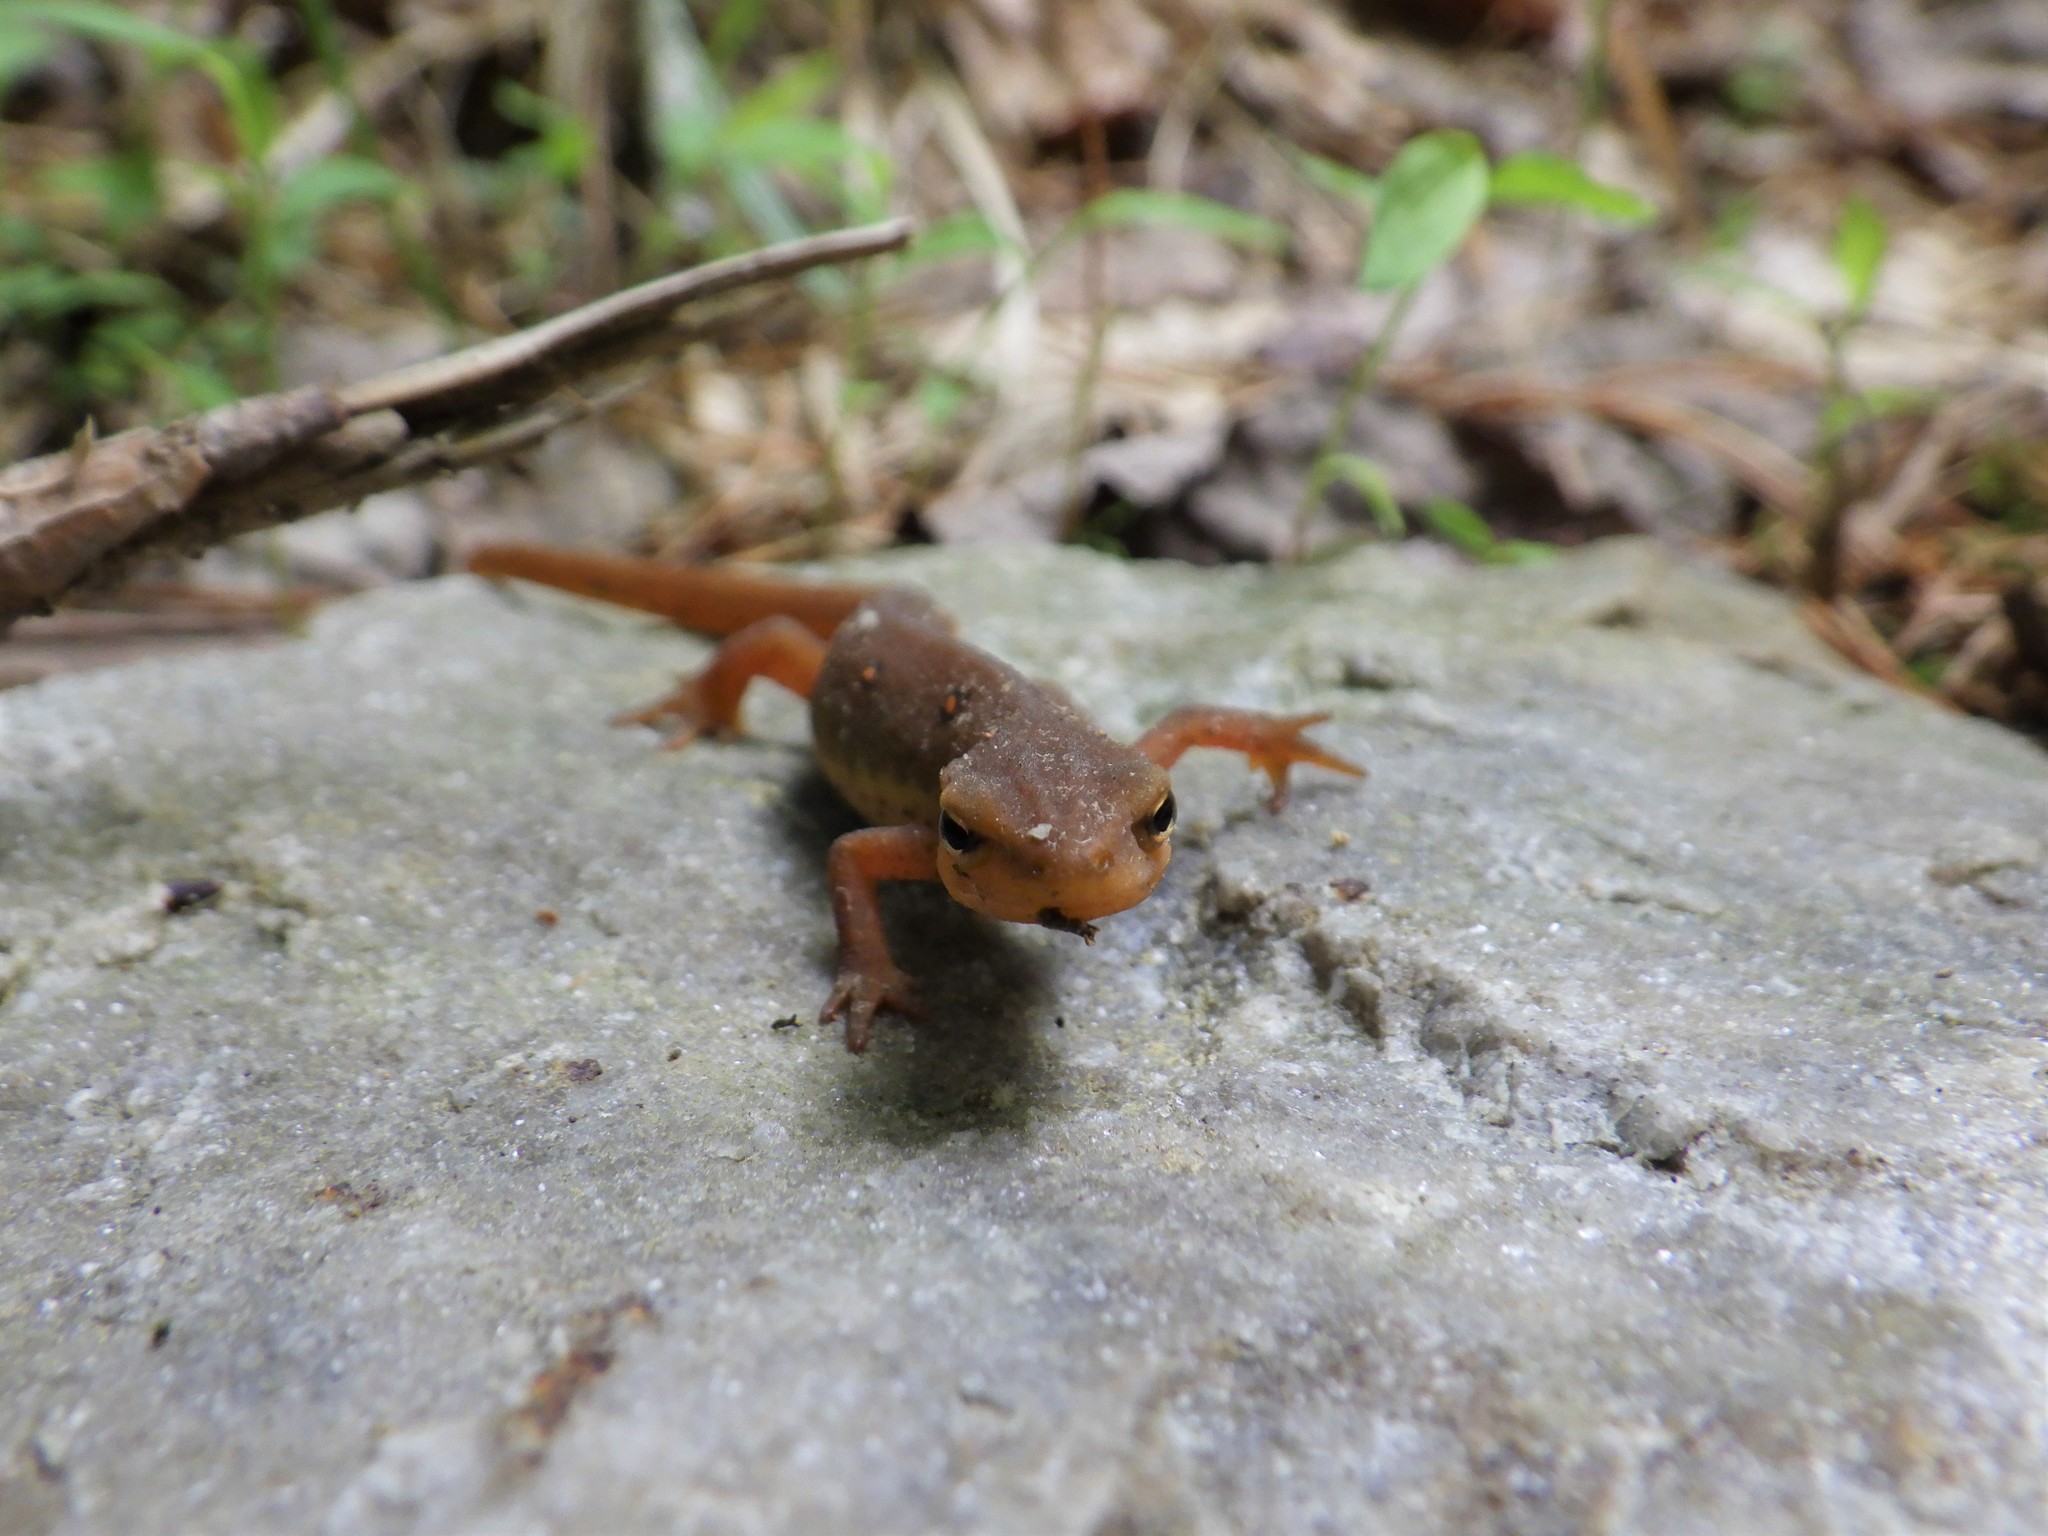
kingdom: Animalia
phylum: Chordata
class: Amphibia
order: Caudata
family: Salamandridae
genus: Notophthalmus
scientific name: Notophthalmus viridescens
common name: Eastern newt
